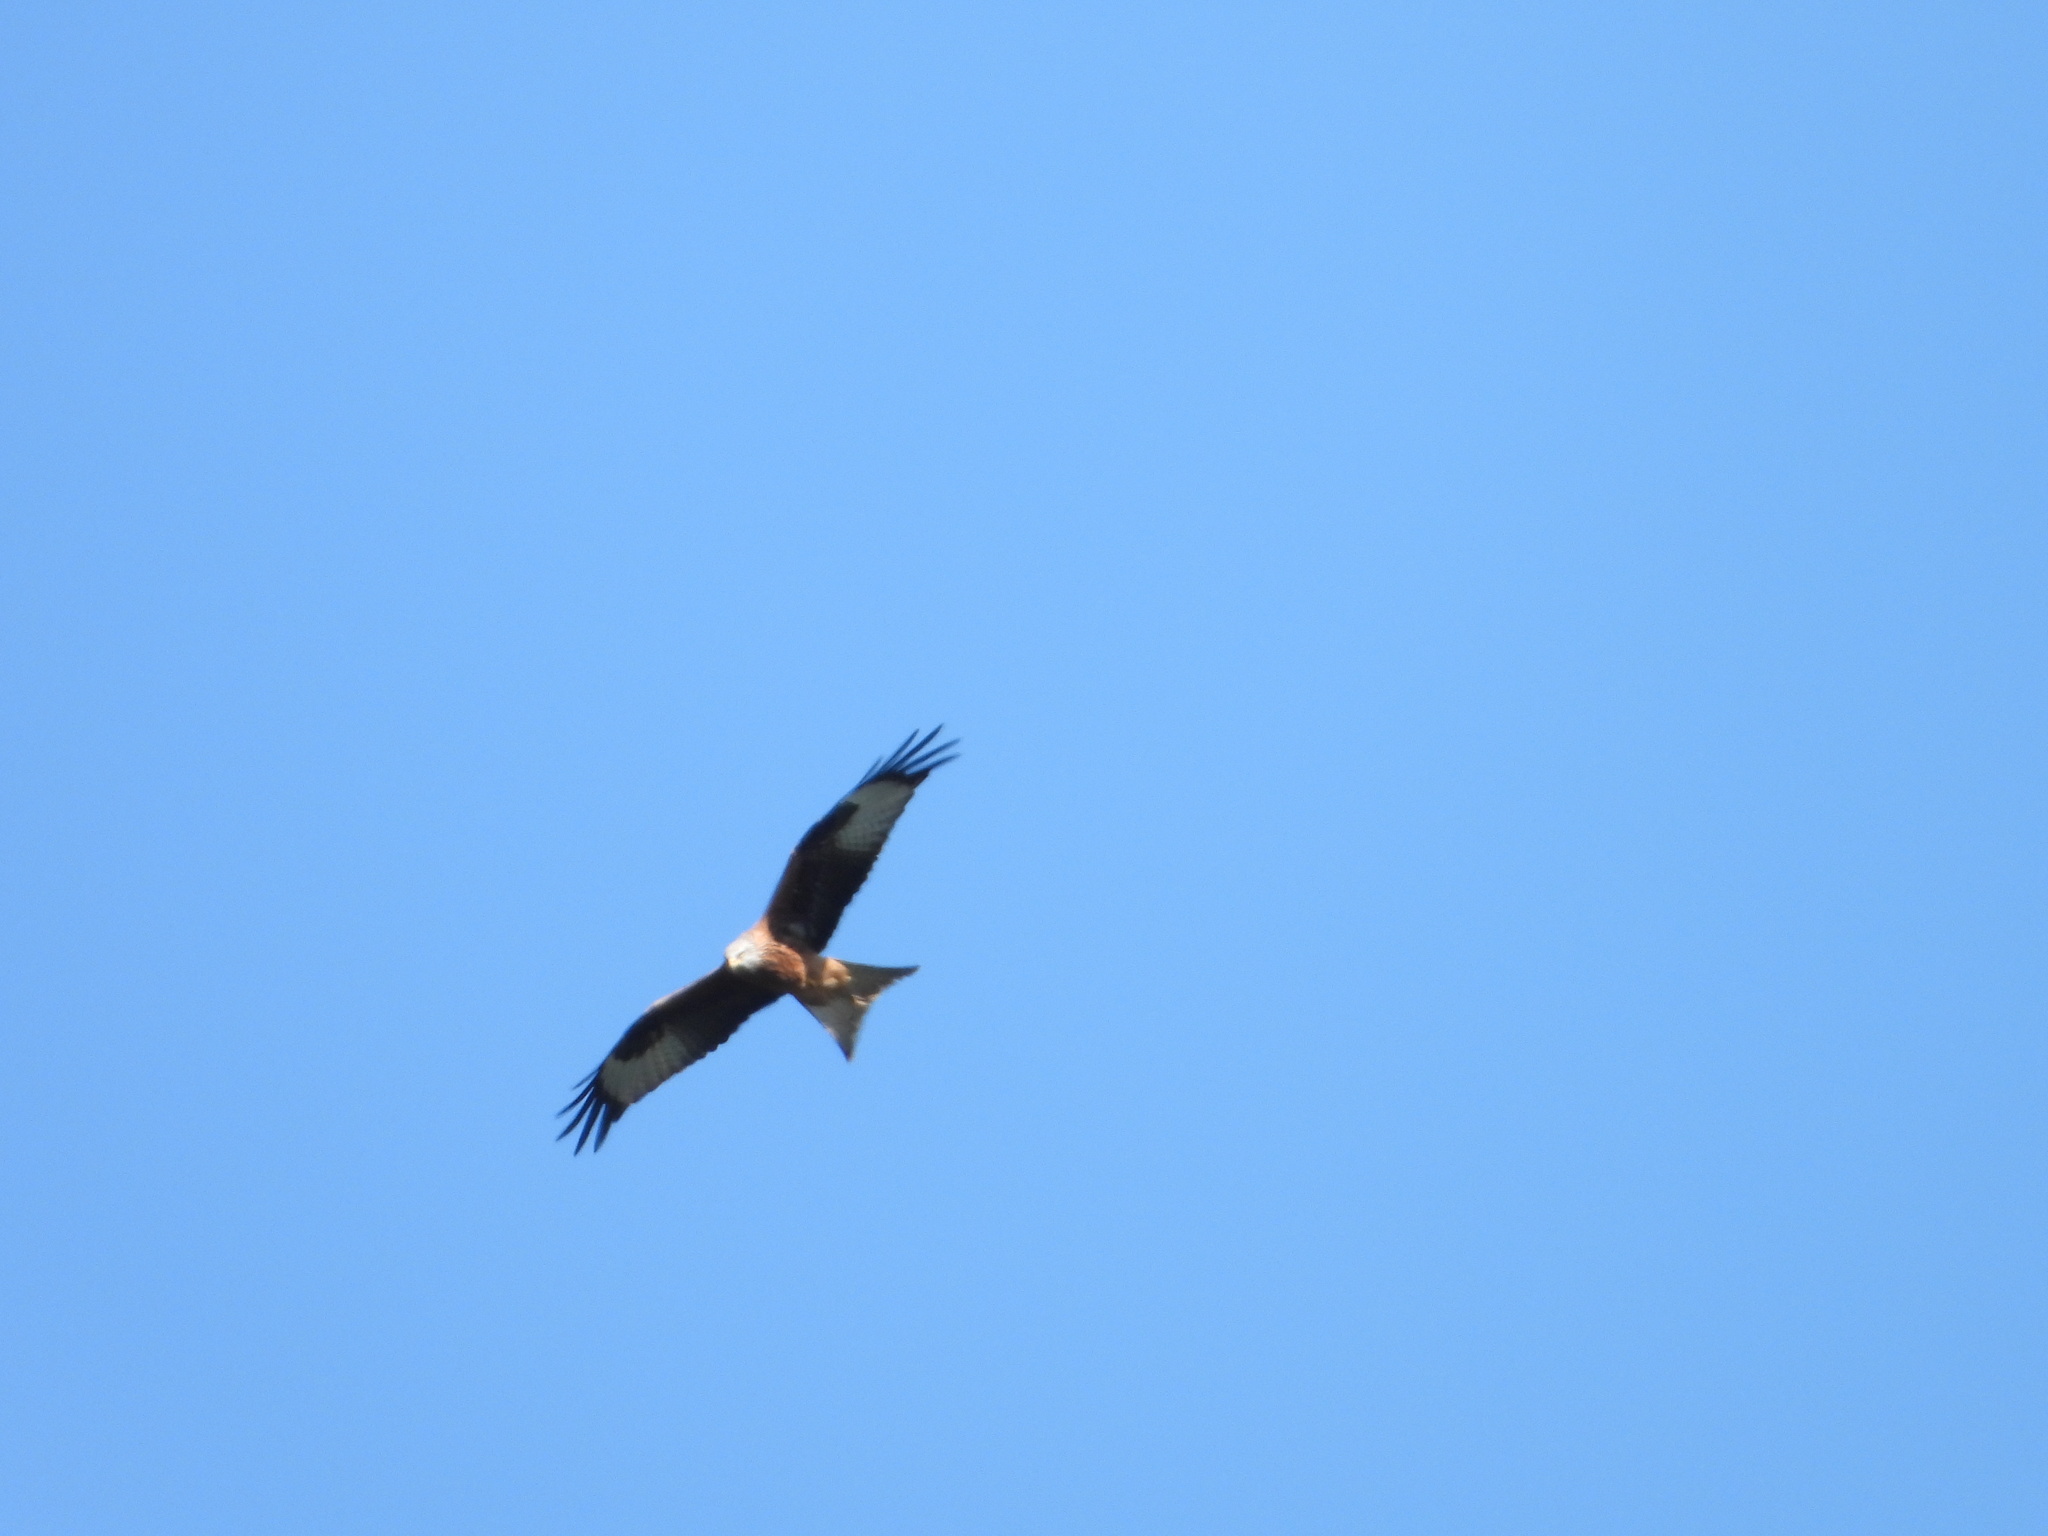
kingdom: Animalia
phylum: Chordata
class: Aves
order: Accipitriformes
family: Accipitridae
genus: Milvus
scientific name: Milvus milvus
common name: Red kite
